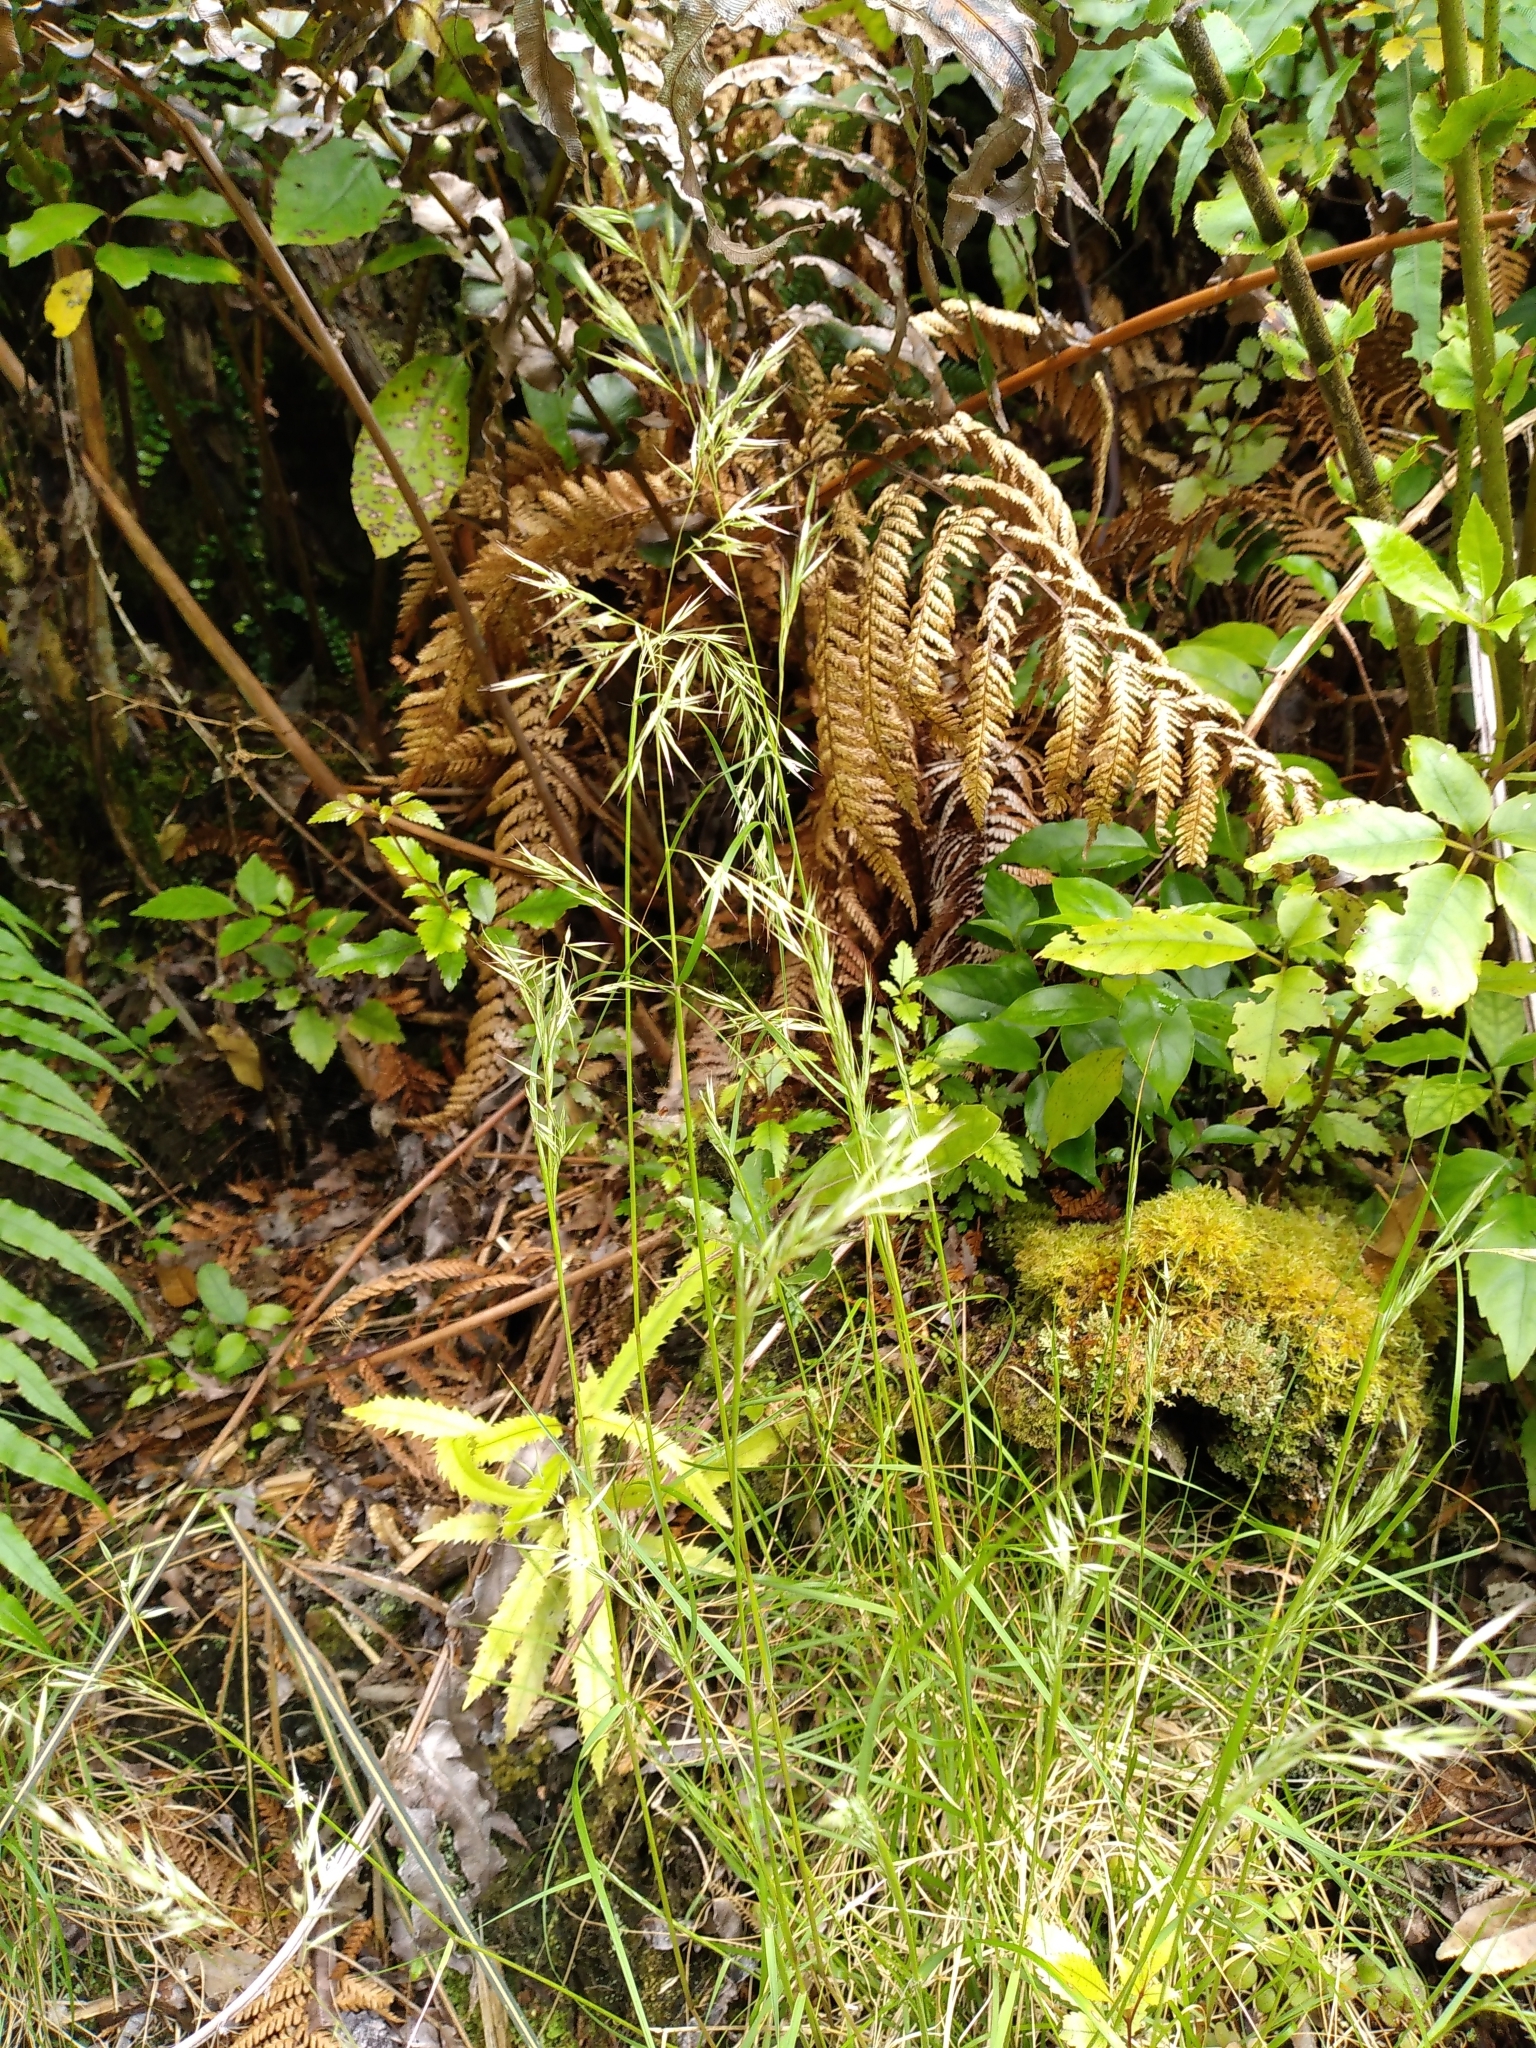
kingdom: Plantae
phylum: Tracheophyta
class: Liliopsida
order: Poales
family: Poaceae
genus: Rytidosperma
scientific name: Rytidosperma gracile
